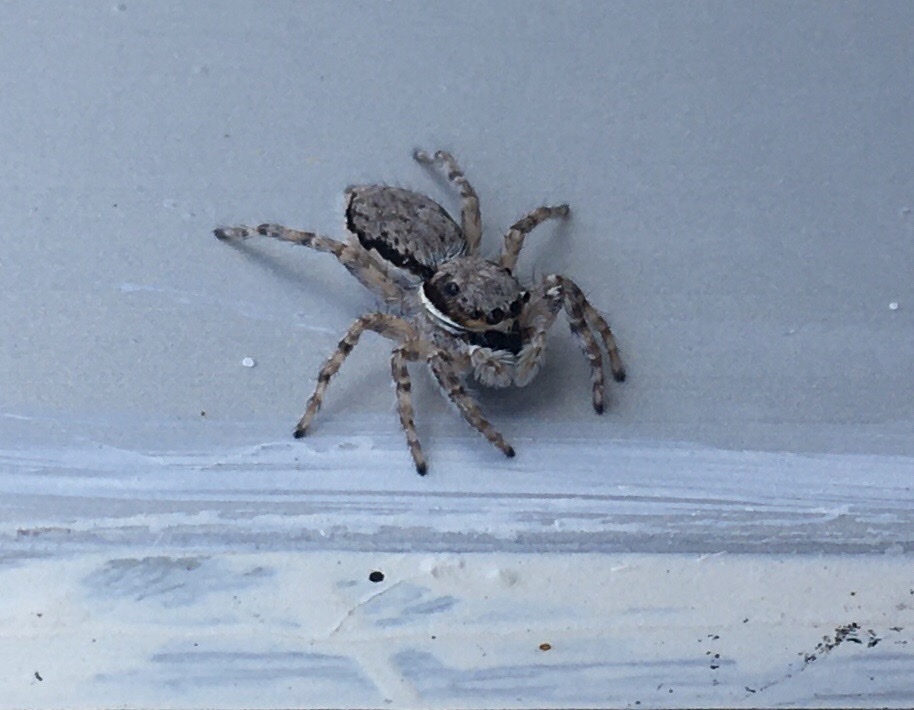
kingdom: Animalia
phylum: Arthropoda
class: Arachnida
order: Araneae
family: Salticidae
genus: Menemerus
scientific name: Menemerus bivittatus
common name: Gray wall jumper
